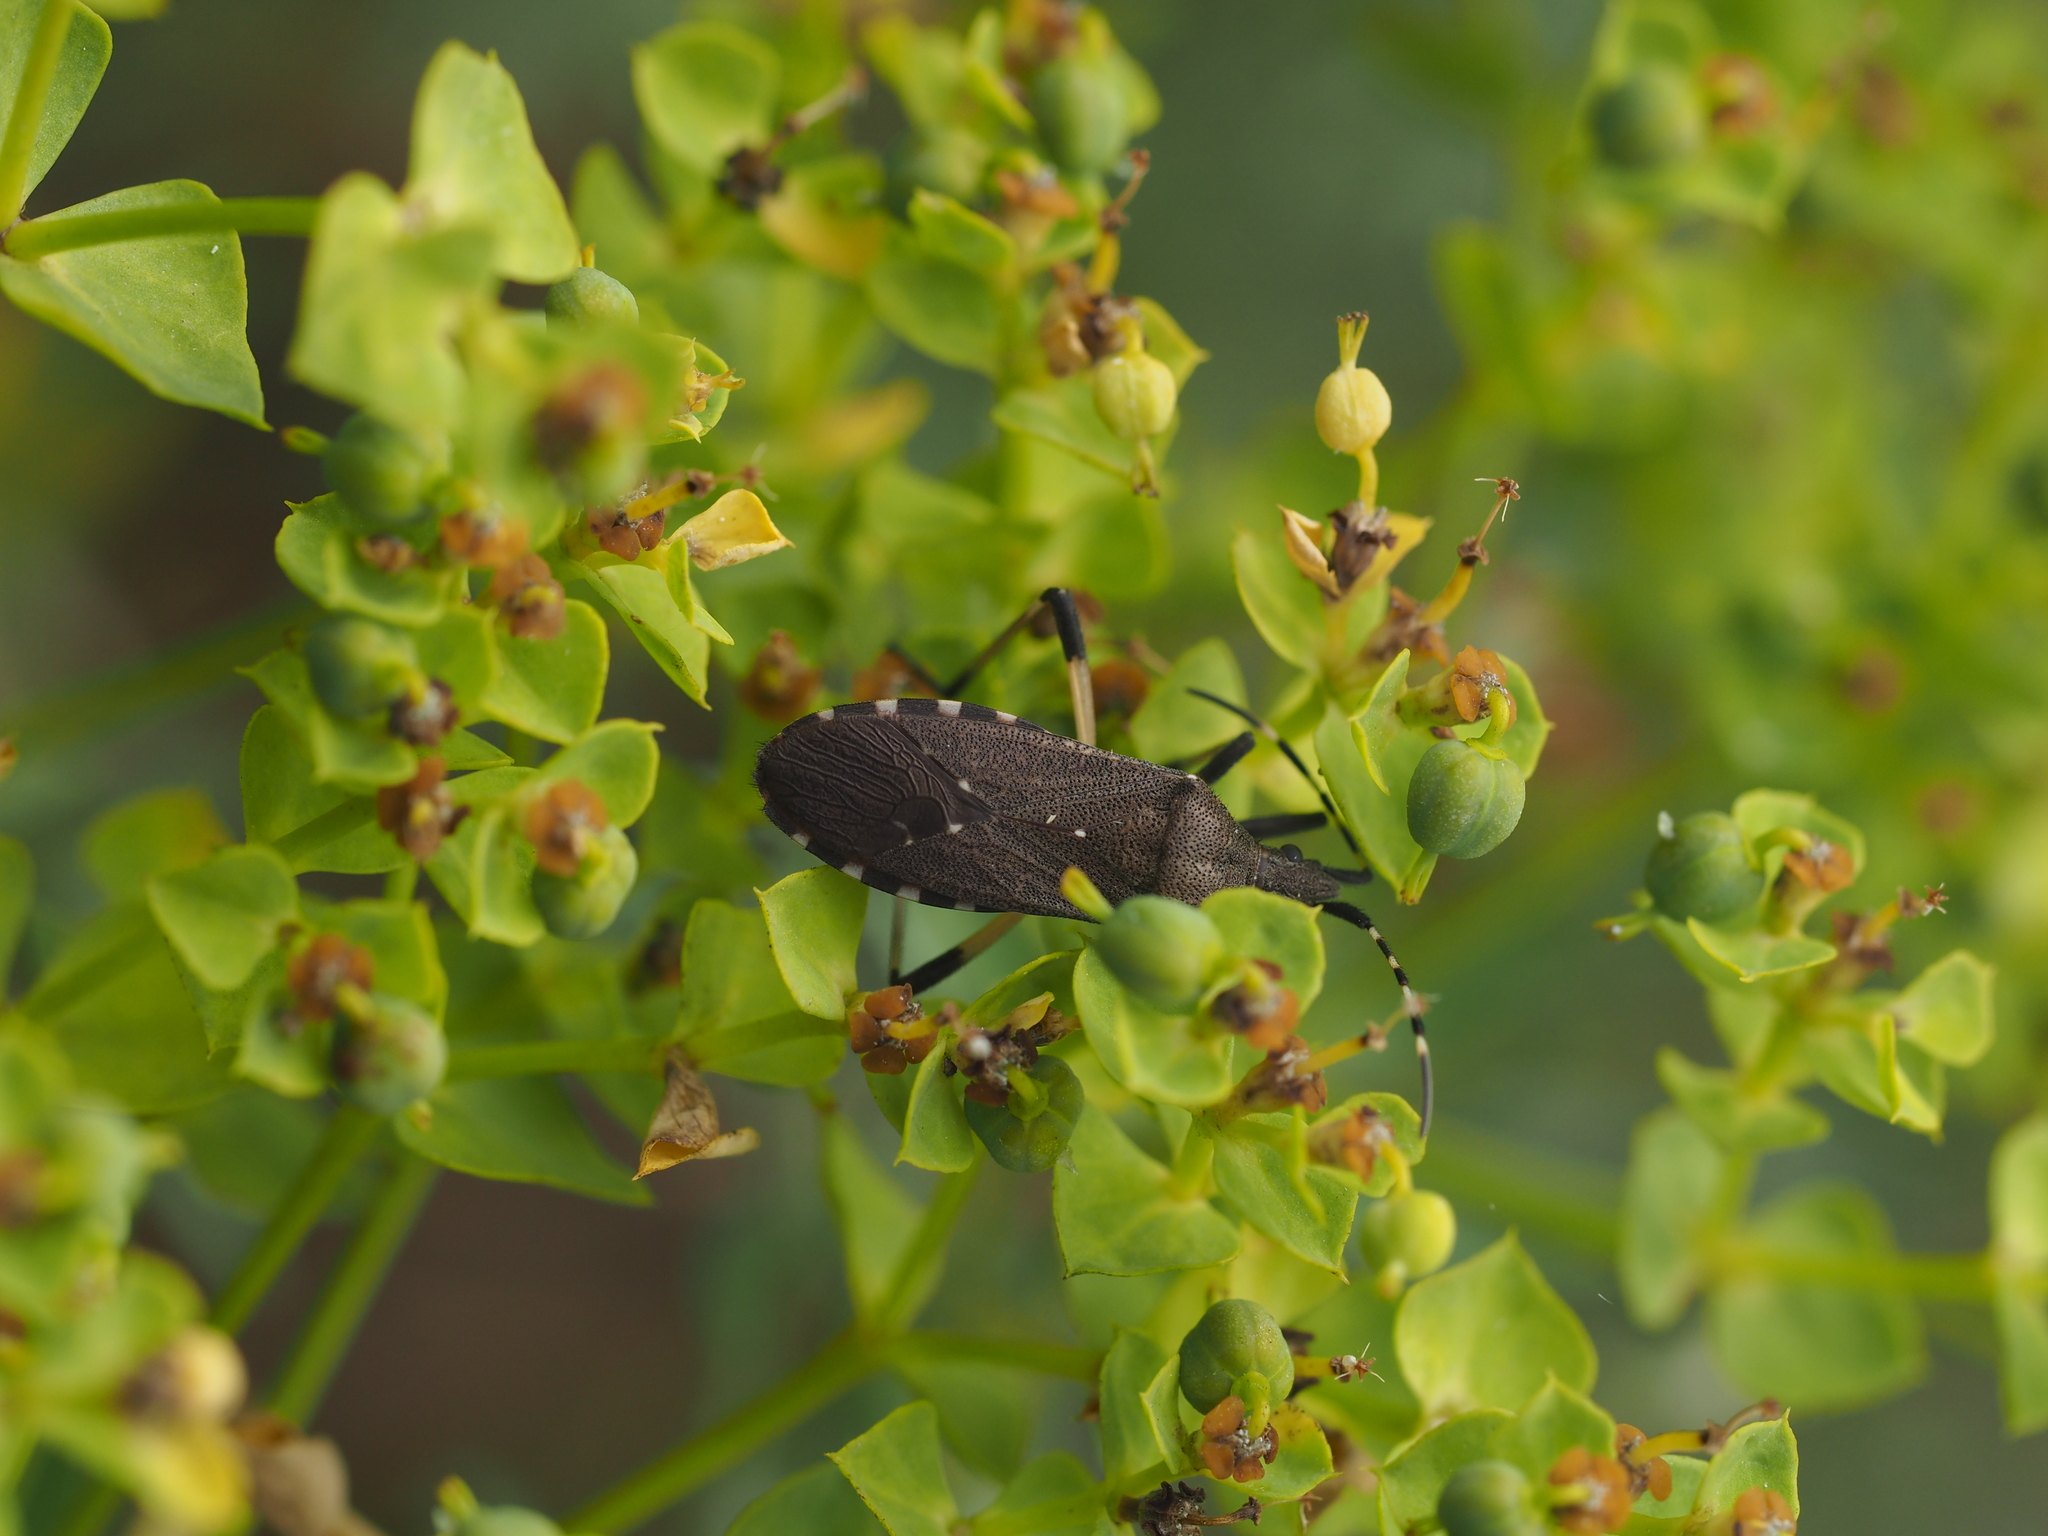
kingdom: Animalia
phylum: Arthropoda
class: Insecta
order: Hemiptera
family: Stenocephalidae
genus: Dicranocephalus
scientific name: Dicranocephalus agilis
